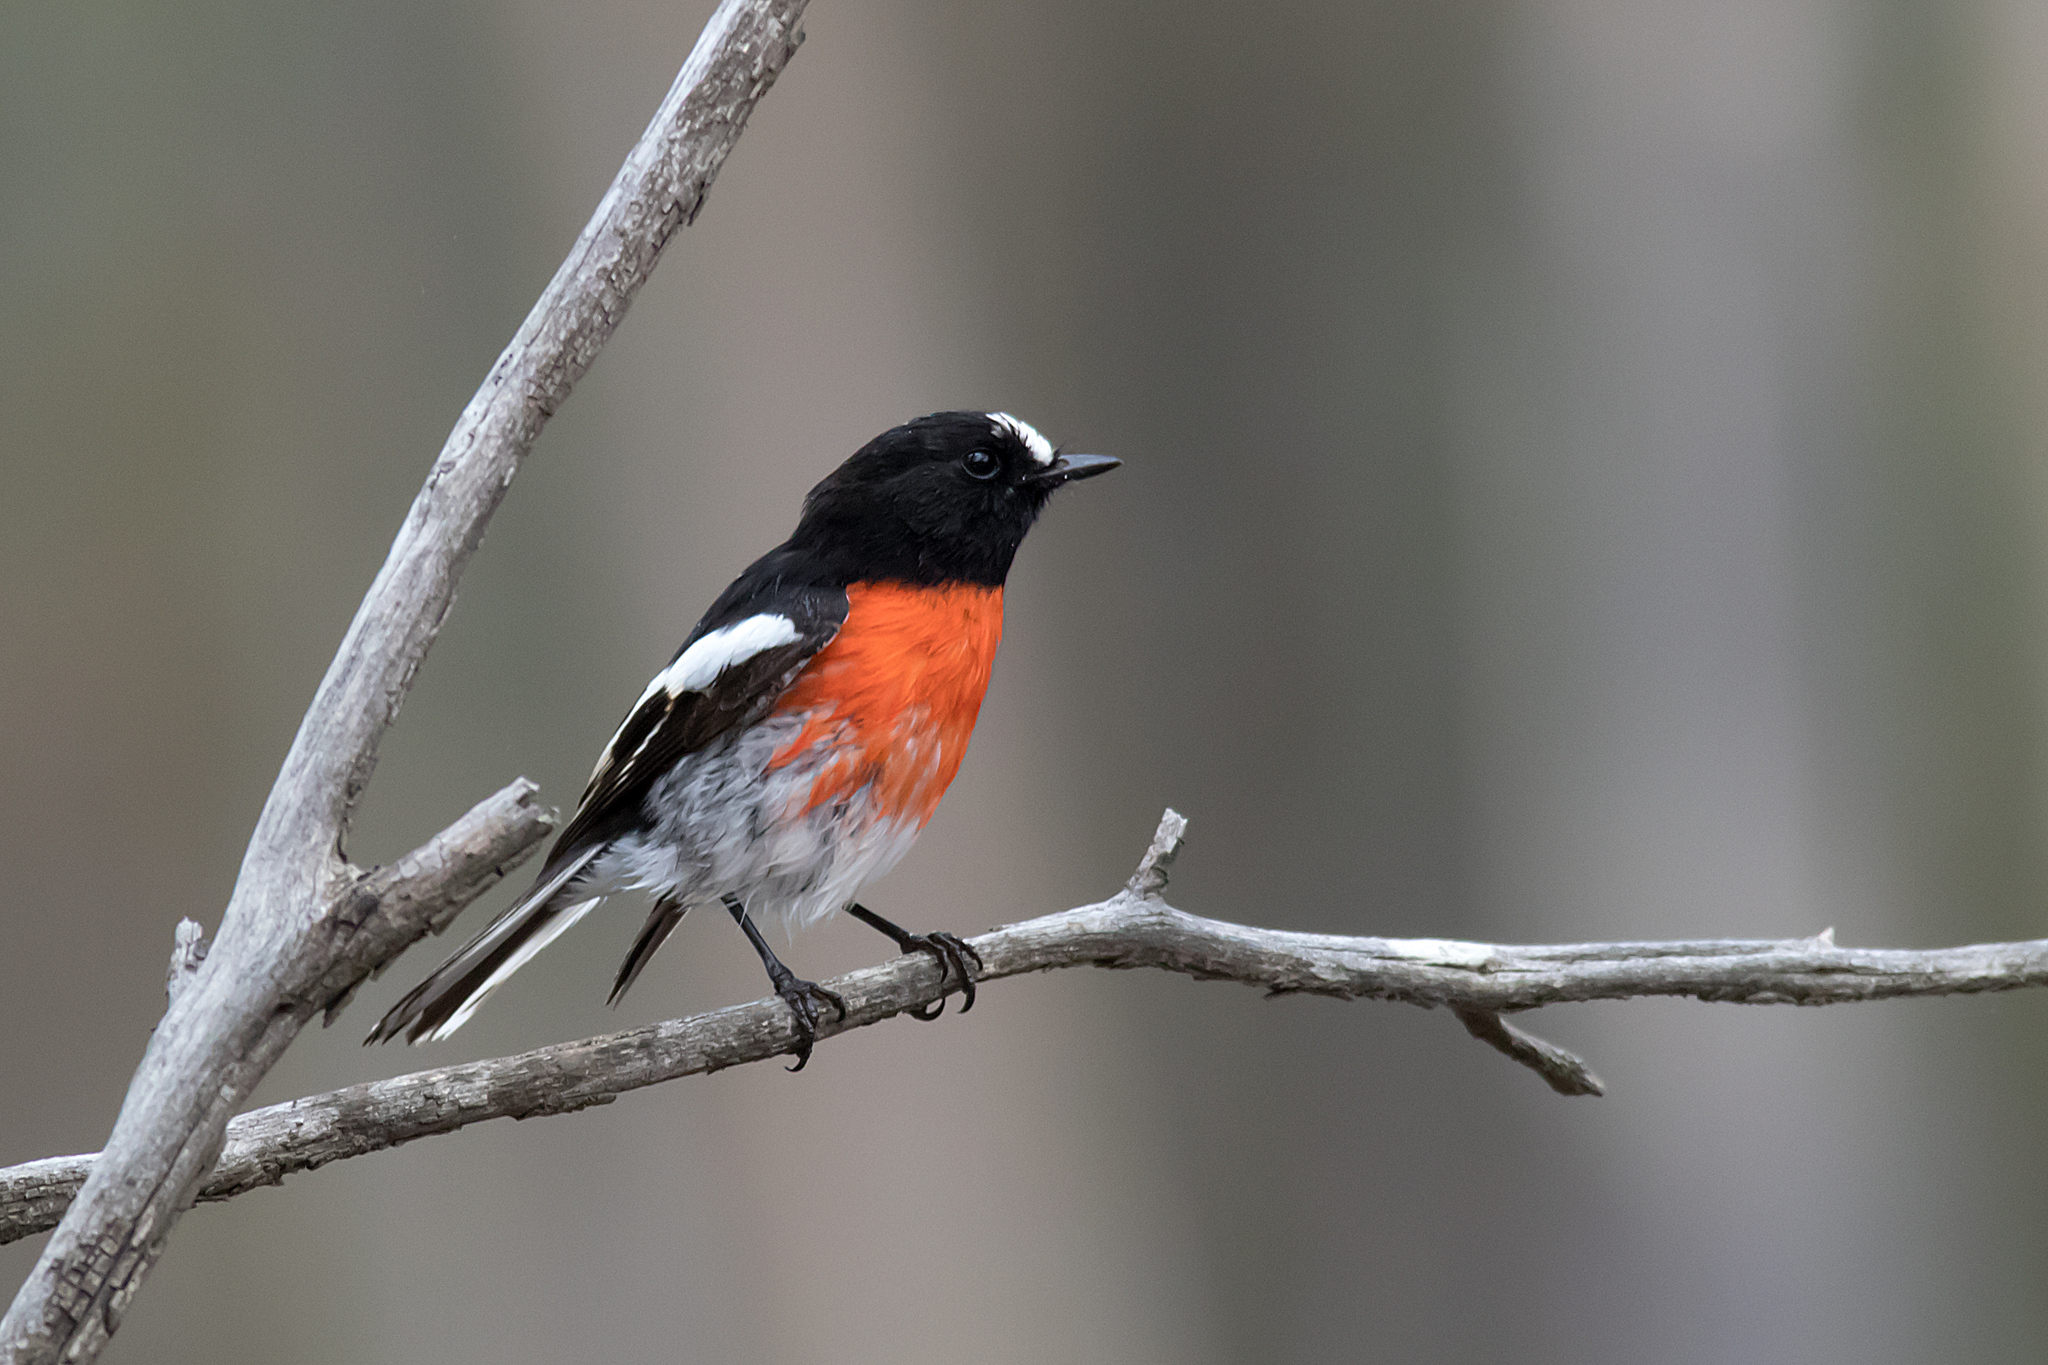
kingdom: Animalia
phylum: Chordata
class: Aves
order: Passeriformes
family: Petroicidae
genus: Petroica
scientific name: Petroica boodang
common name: Scarlet robin
